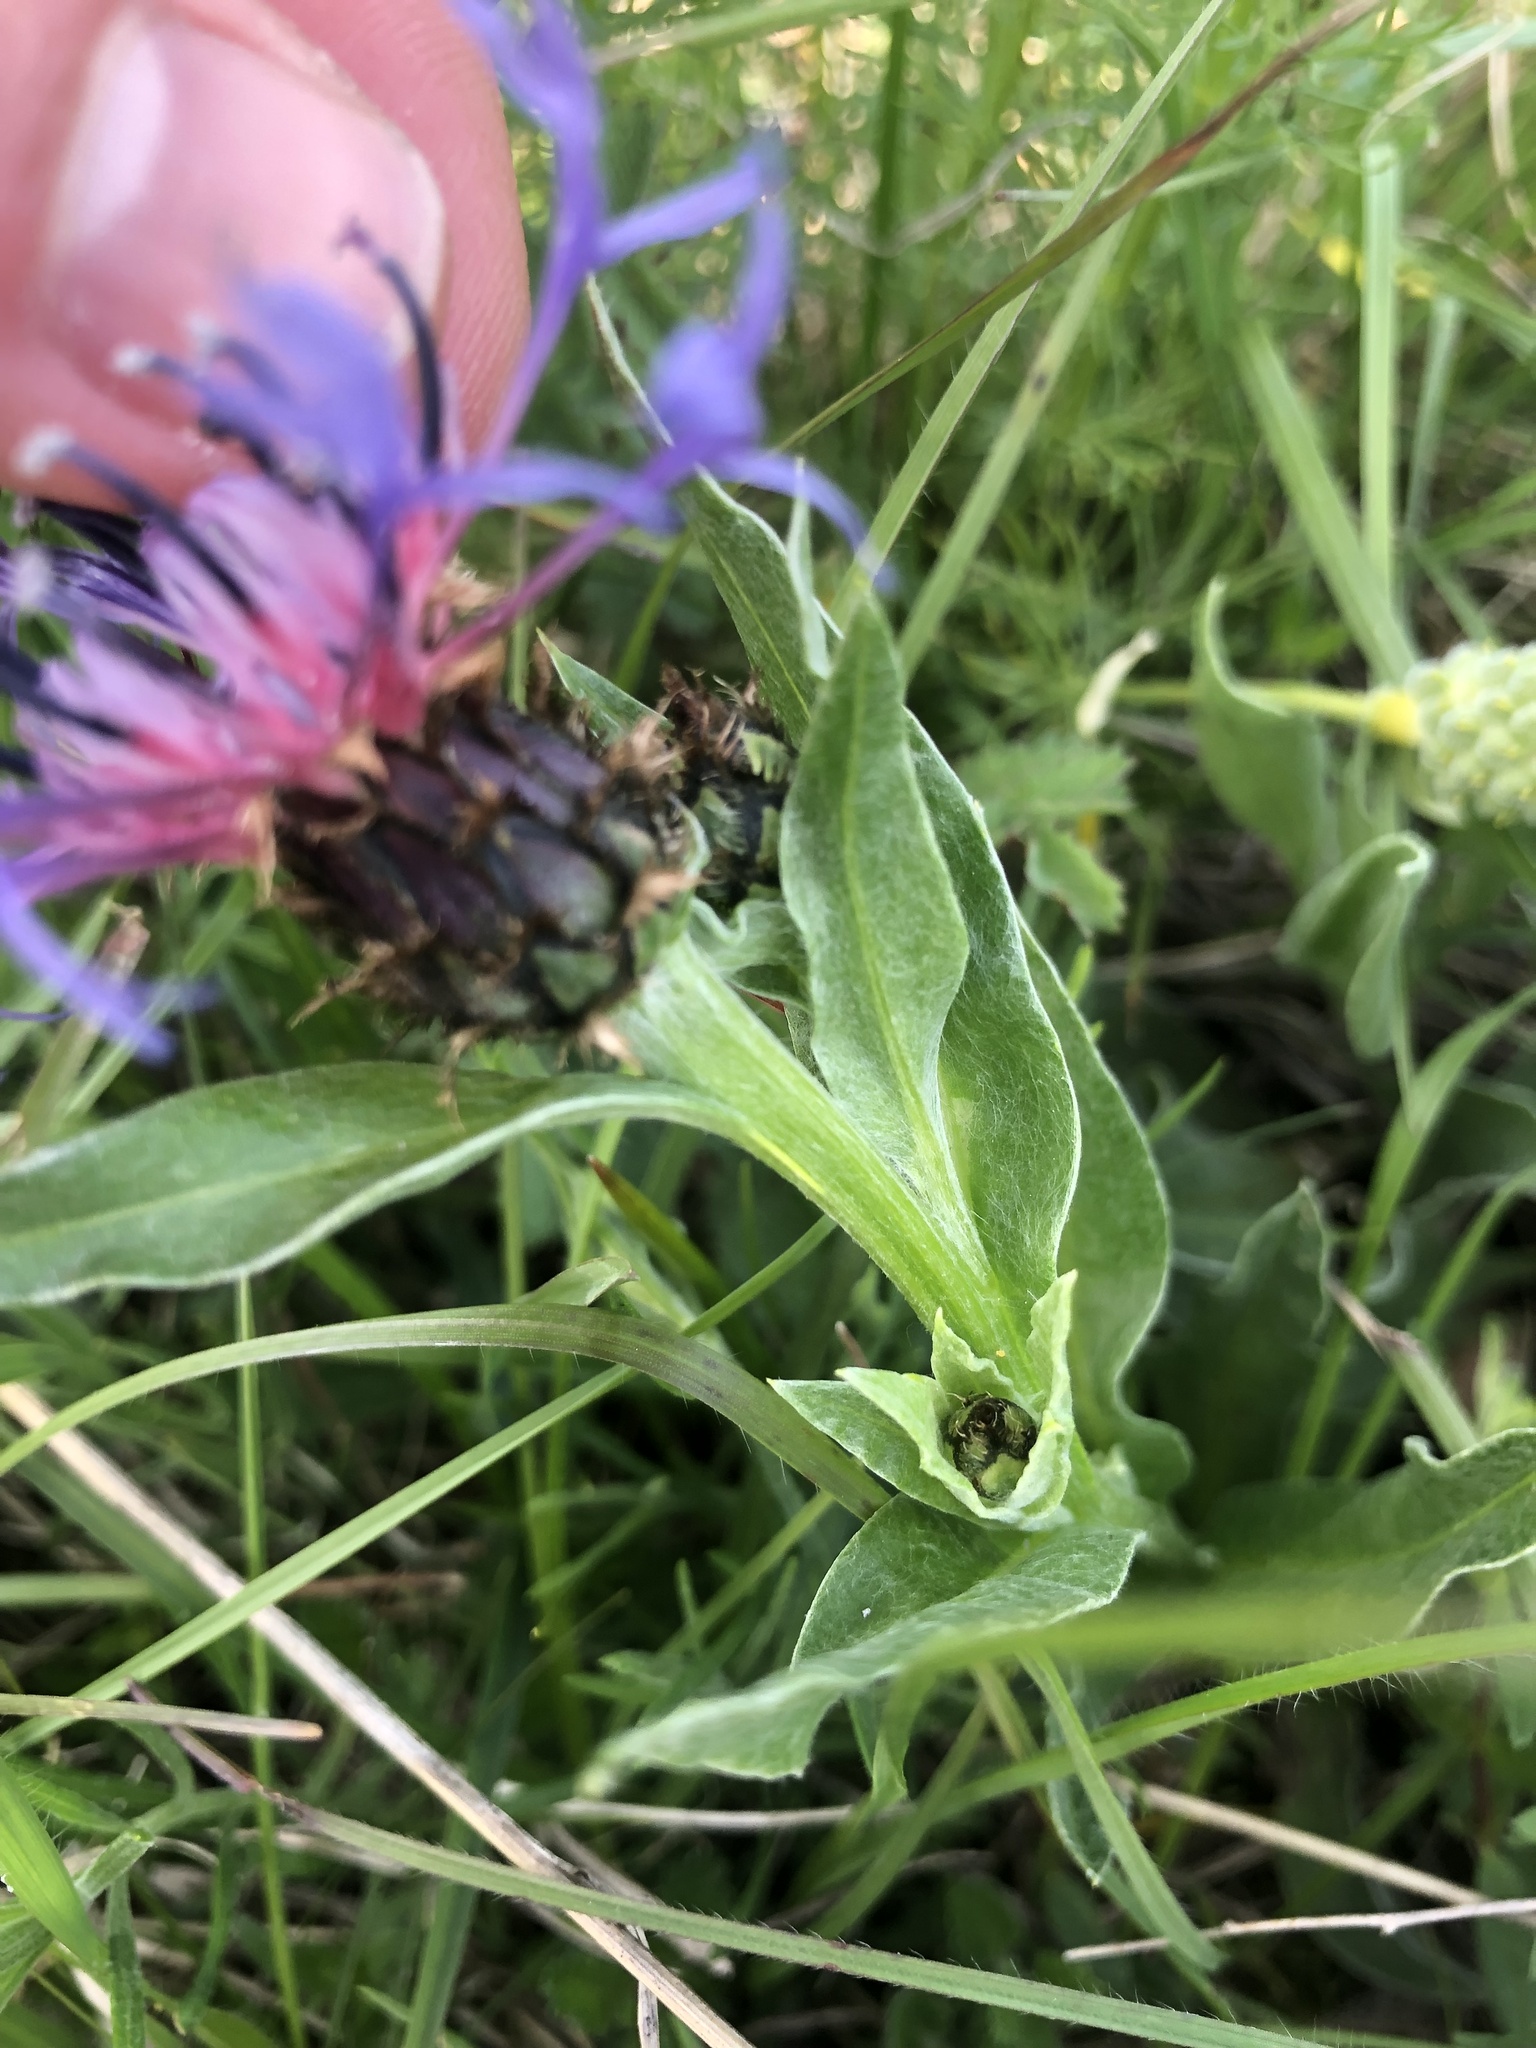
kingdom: Plantae
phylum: Tracheophyta
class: Magnoliopsida
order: Asterales
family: Asteraceae
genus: Centaurea
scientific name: Centaurea triumfettii
